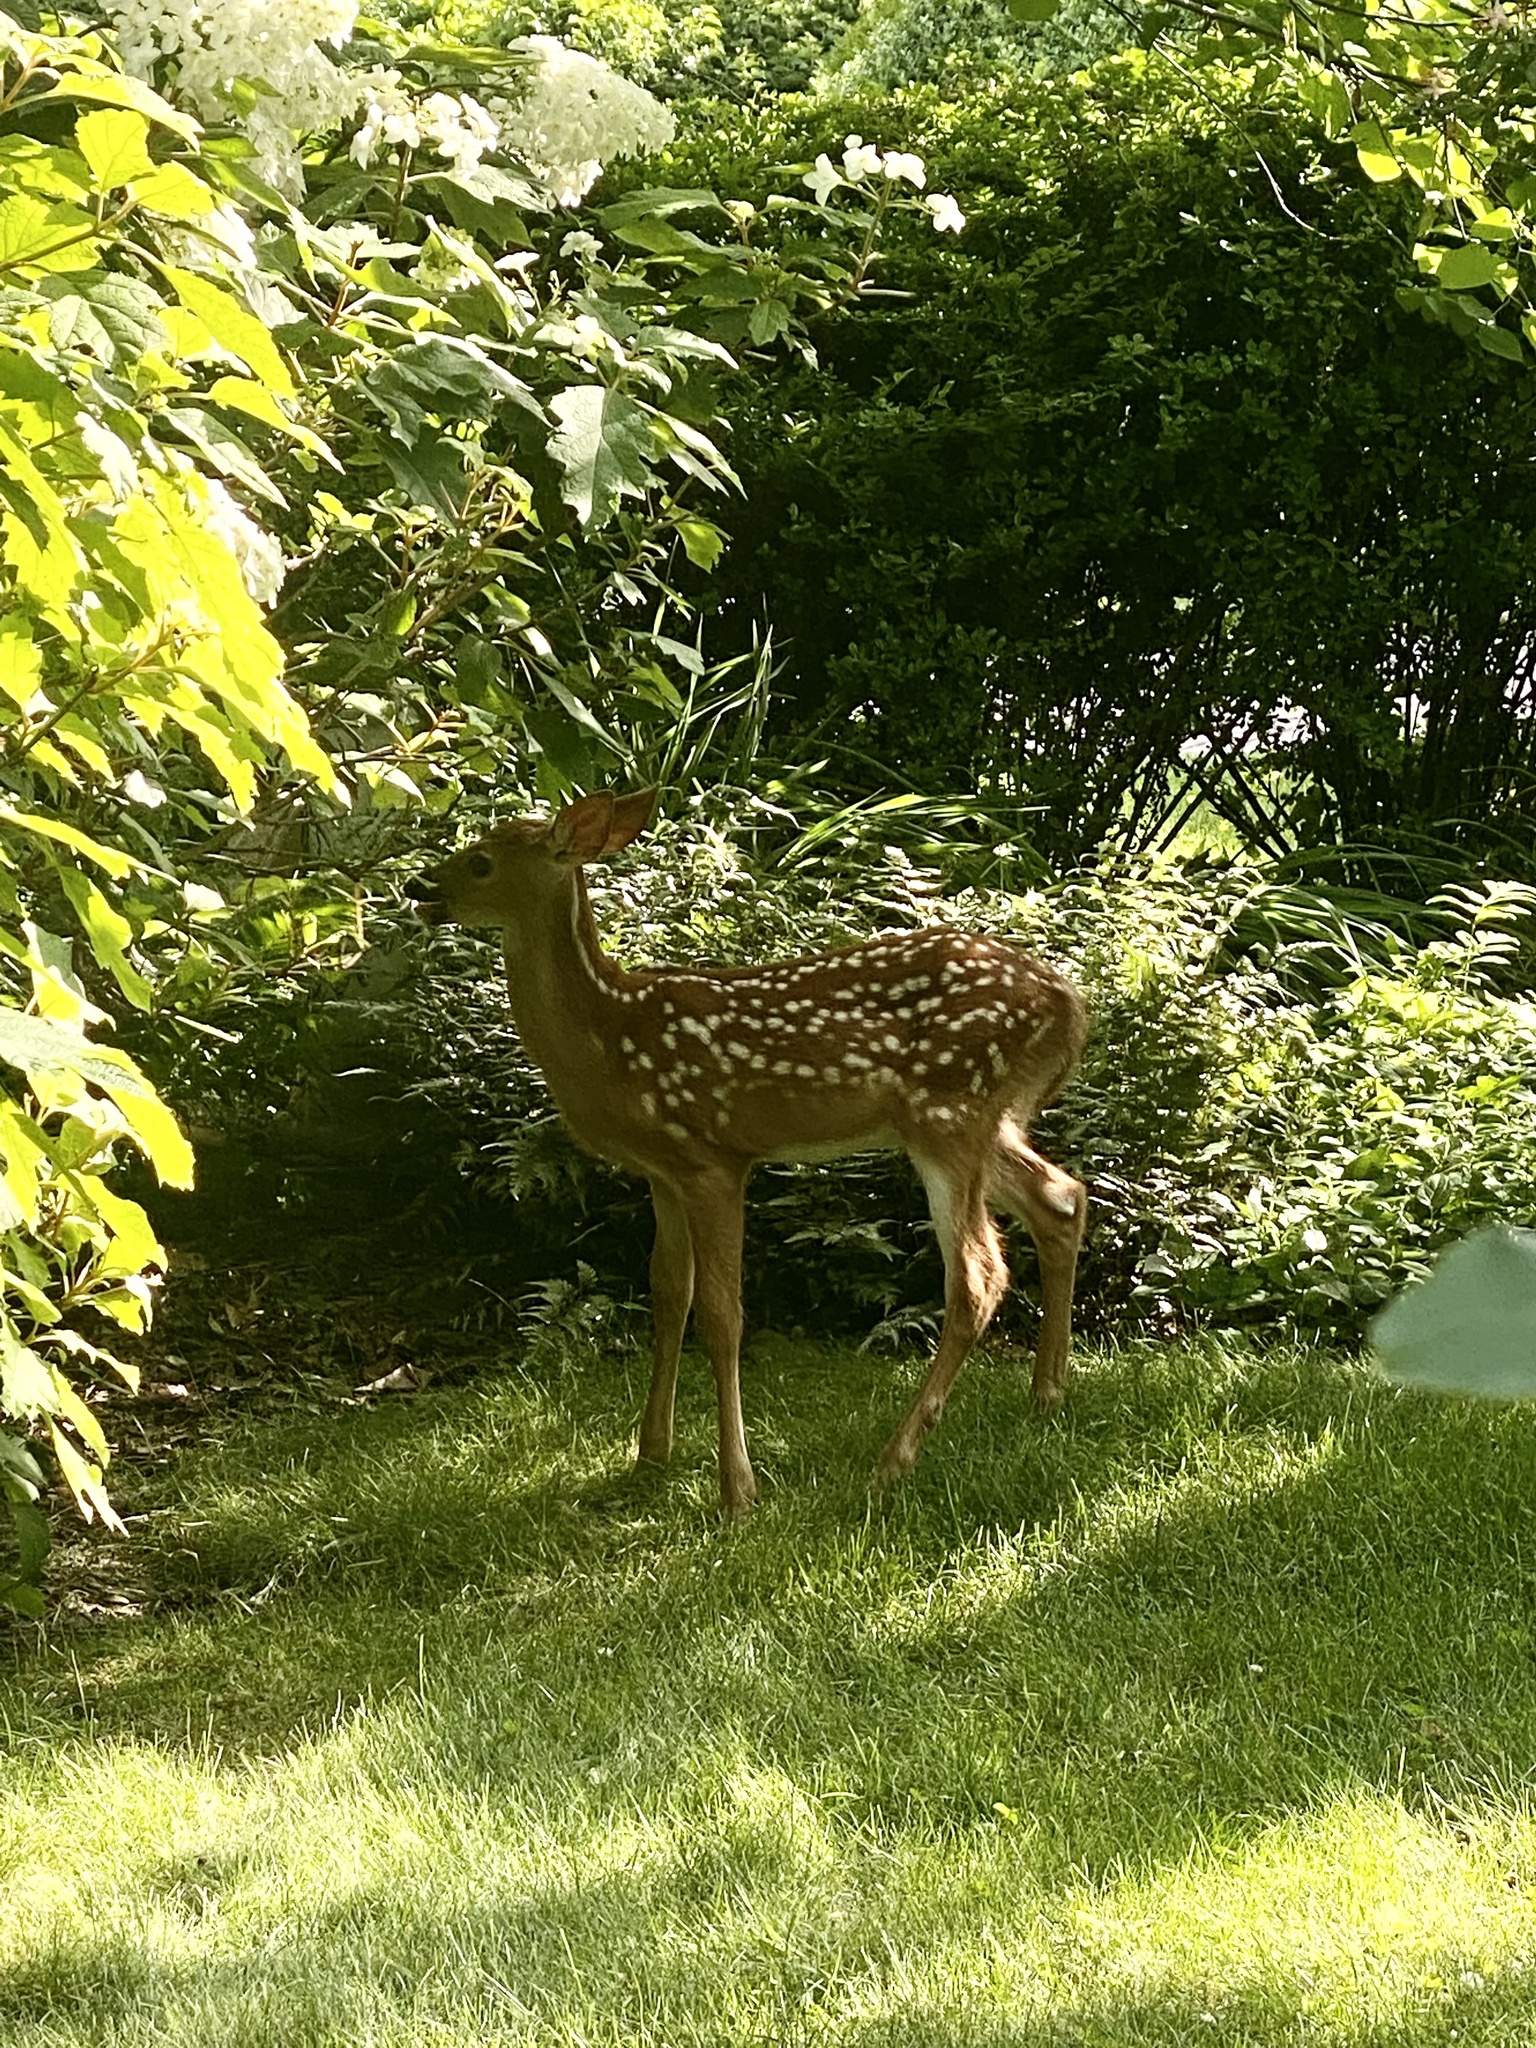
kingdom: Animalia
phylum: Chordata
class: Mammalia
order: Artiodactyla
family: Cervidae
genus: Odocoileus
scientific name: Odocoileus virginianus
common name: White-tailed deer
